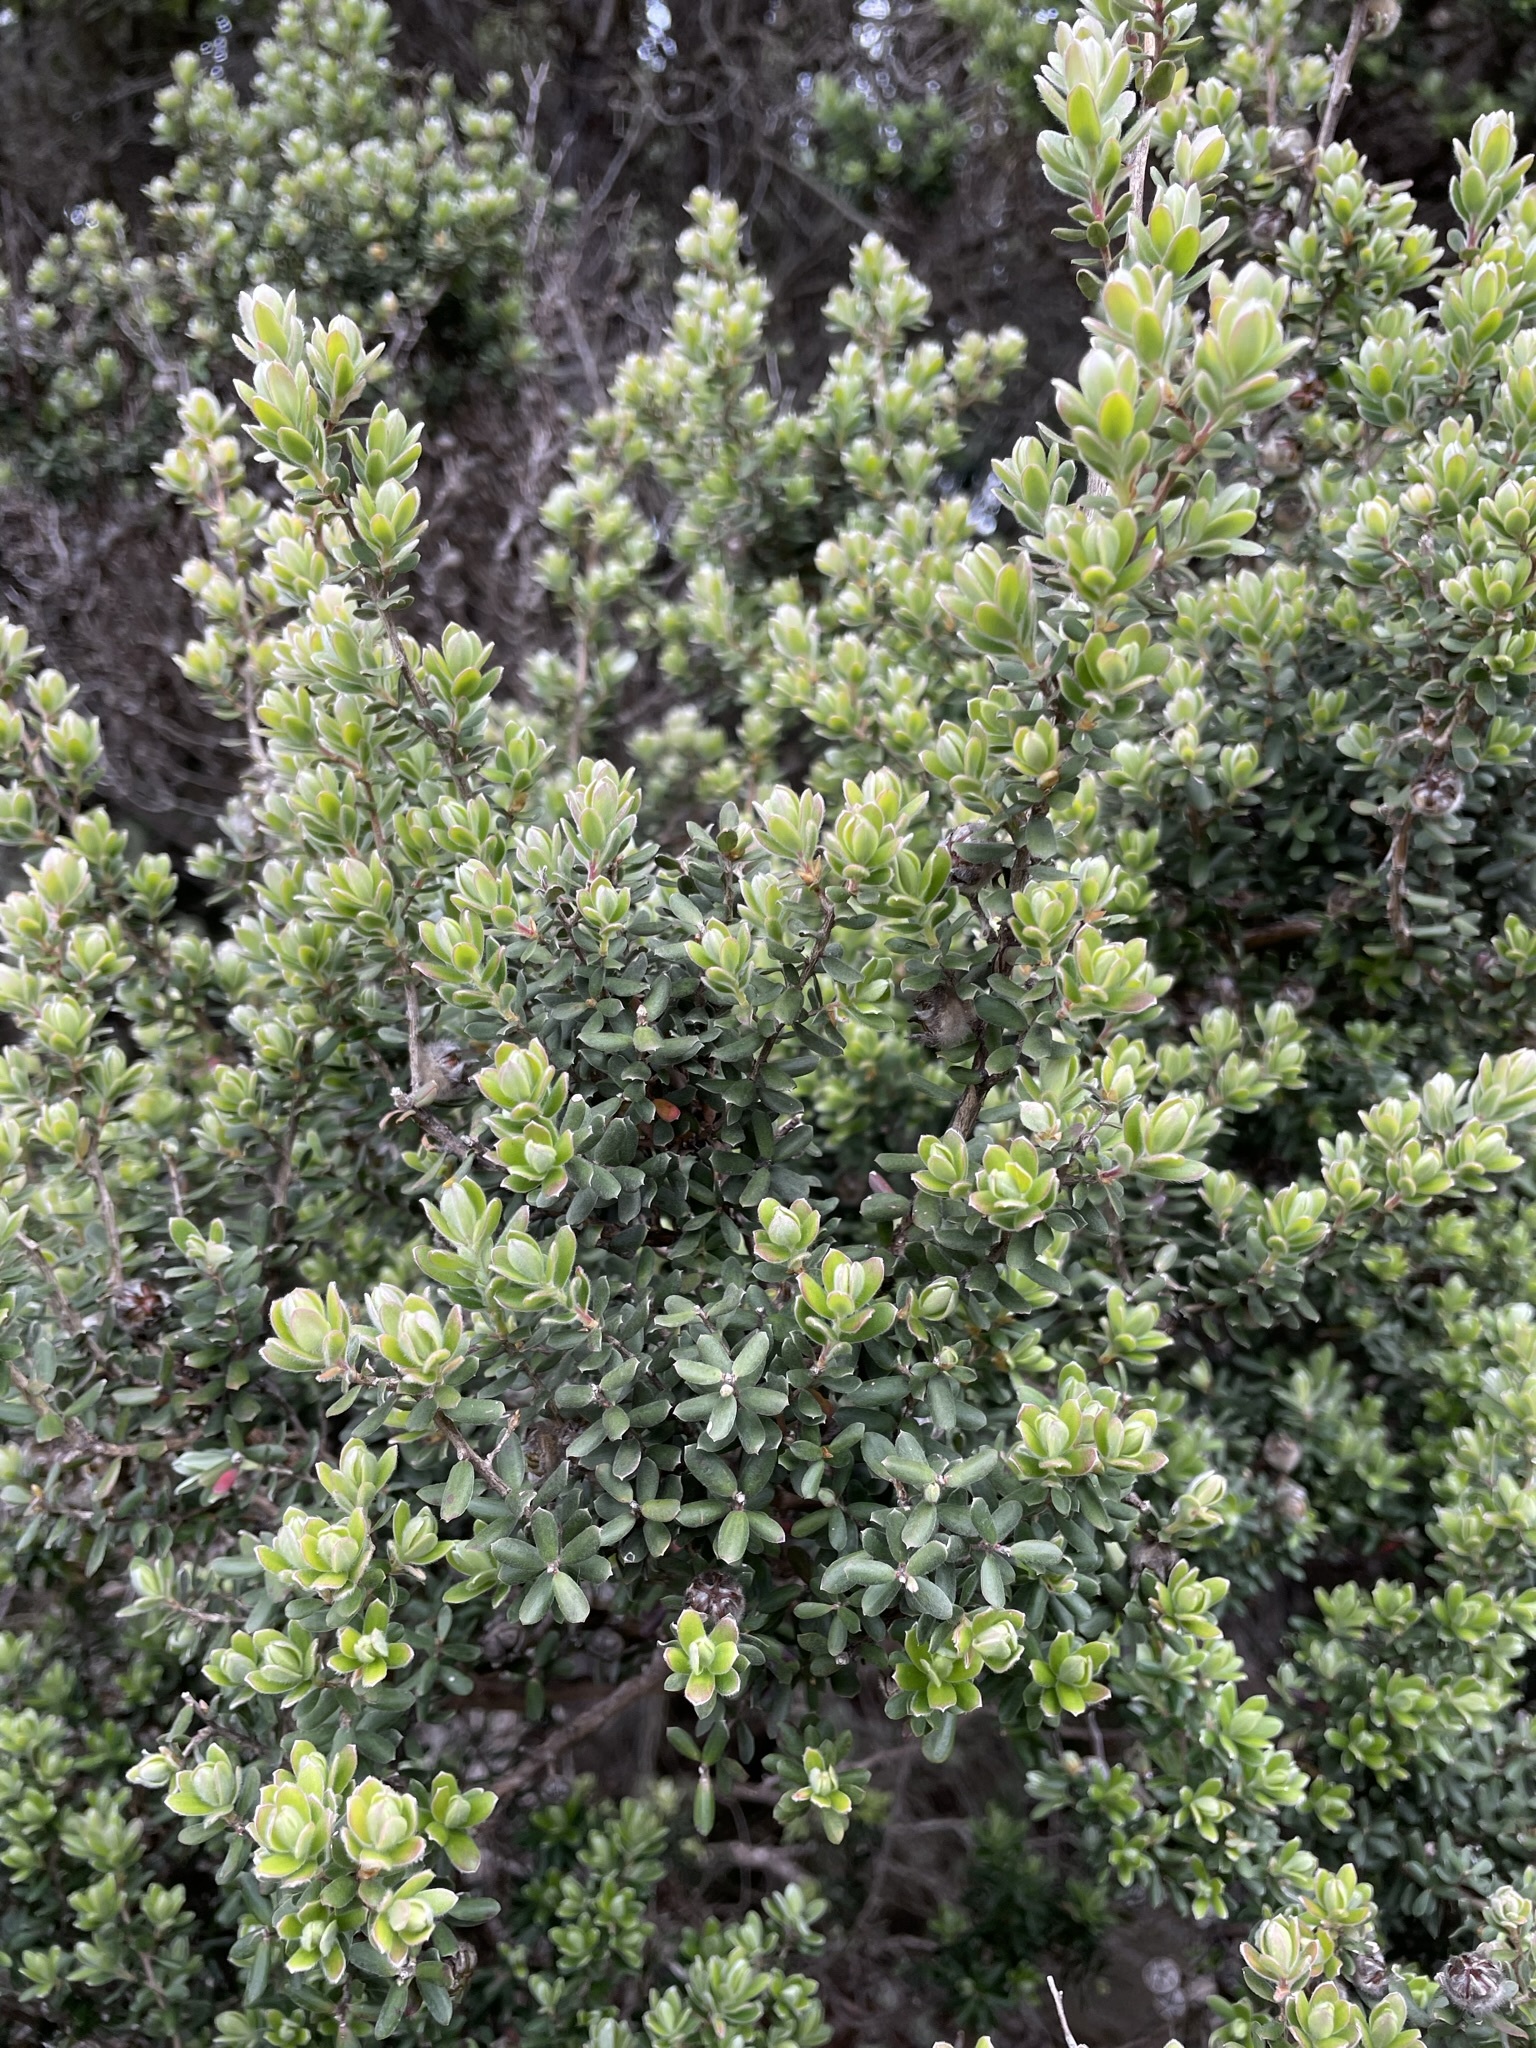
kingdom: Plantae
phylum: Tracheophyta
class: Magnoliopsida
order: Myrtales
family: Myrtaceae
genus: Leptospermum
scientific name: Leptospermum lanigerum
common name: Woolly tea-tree
